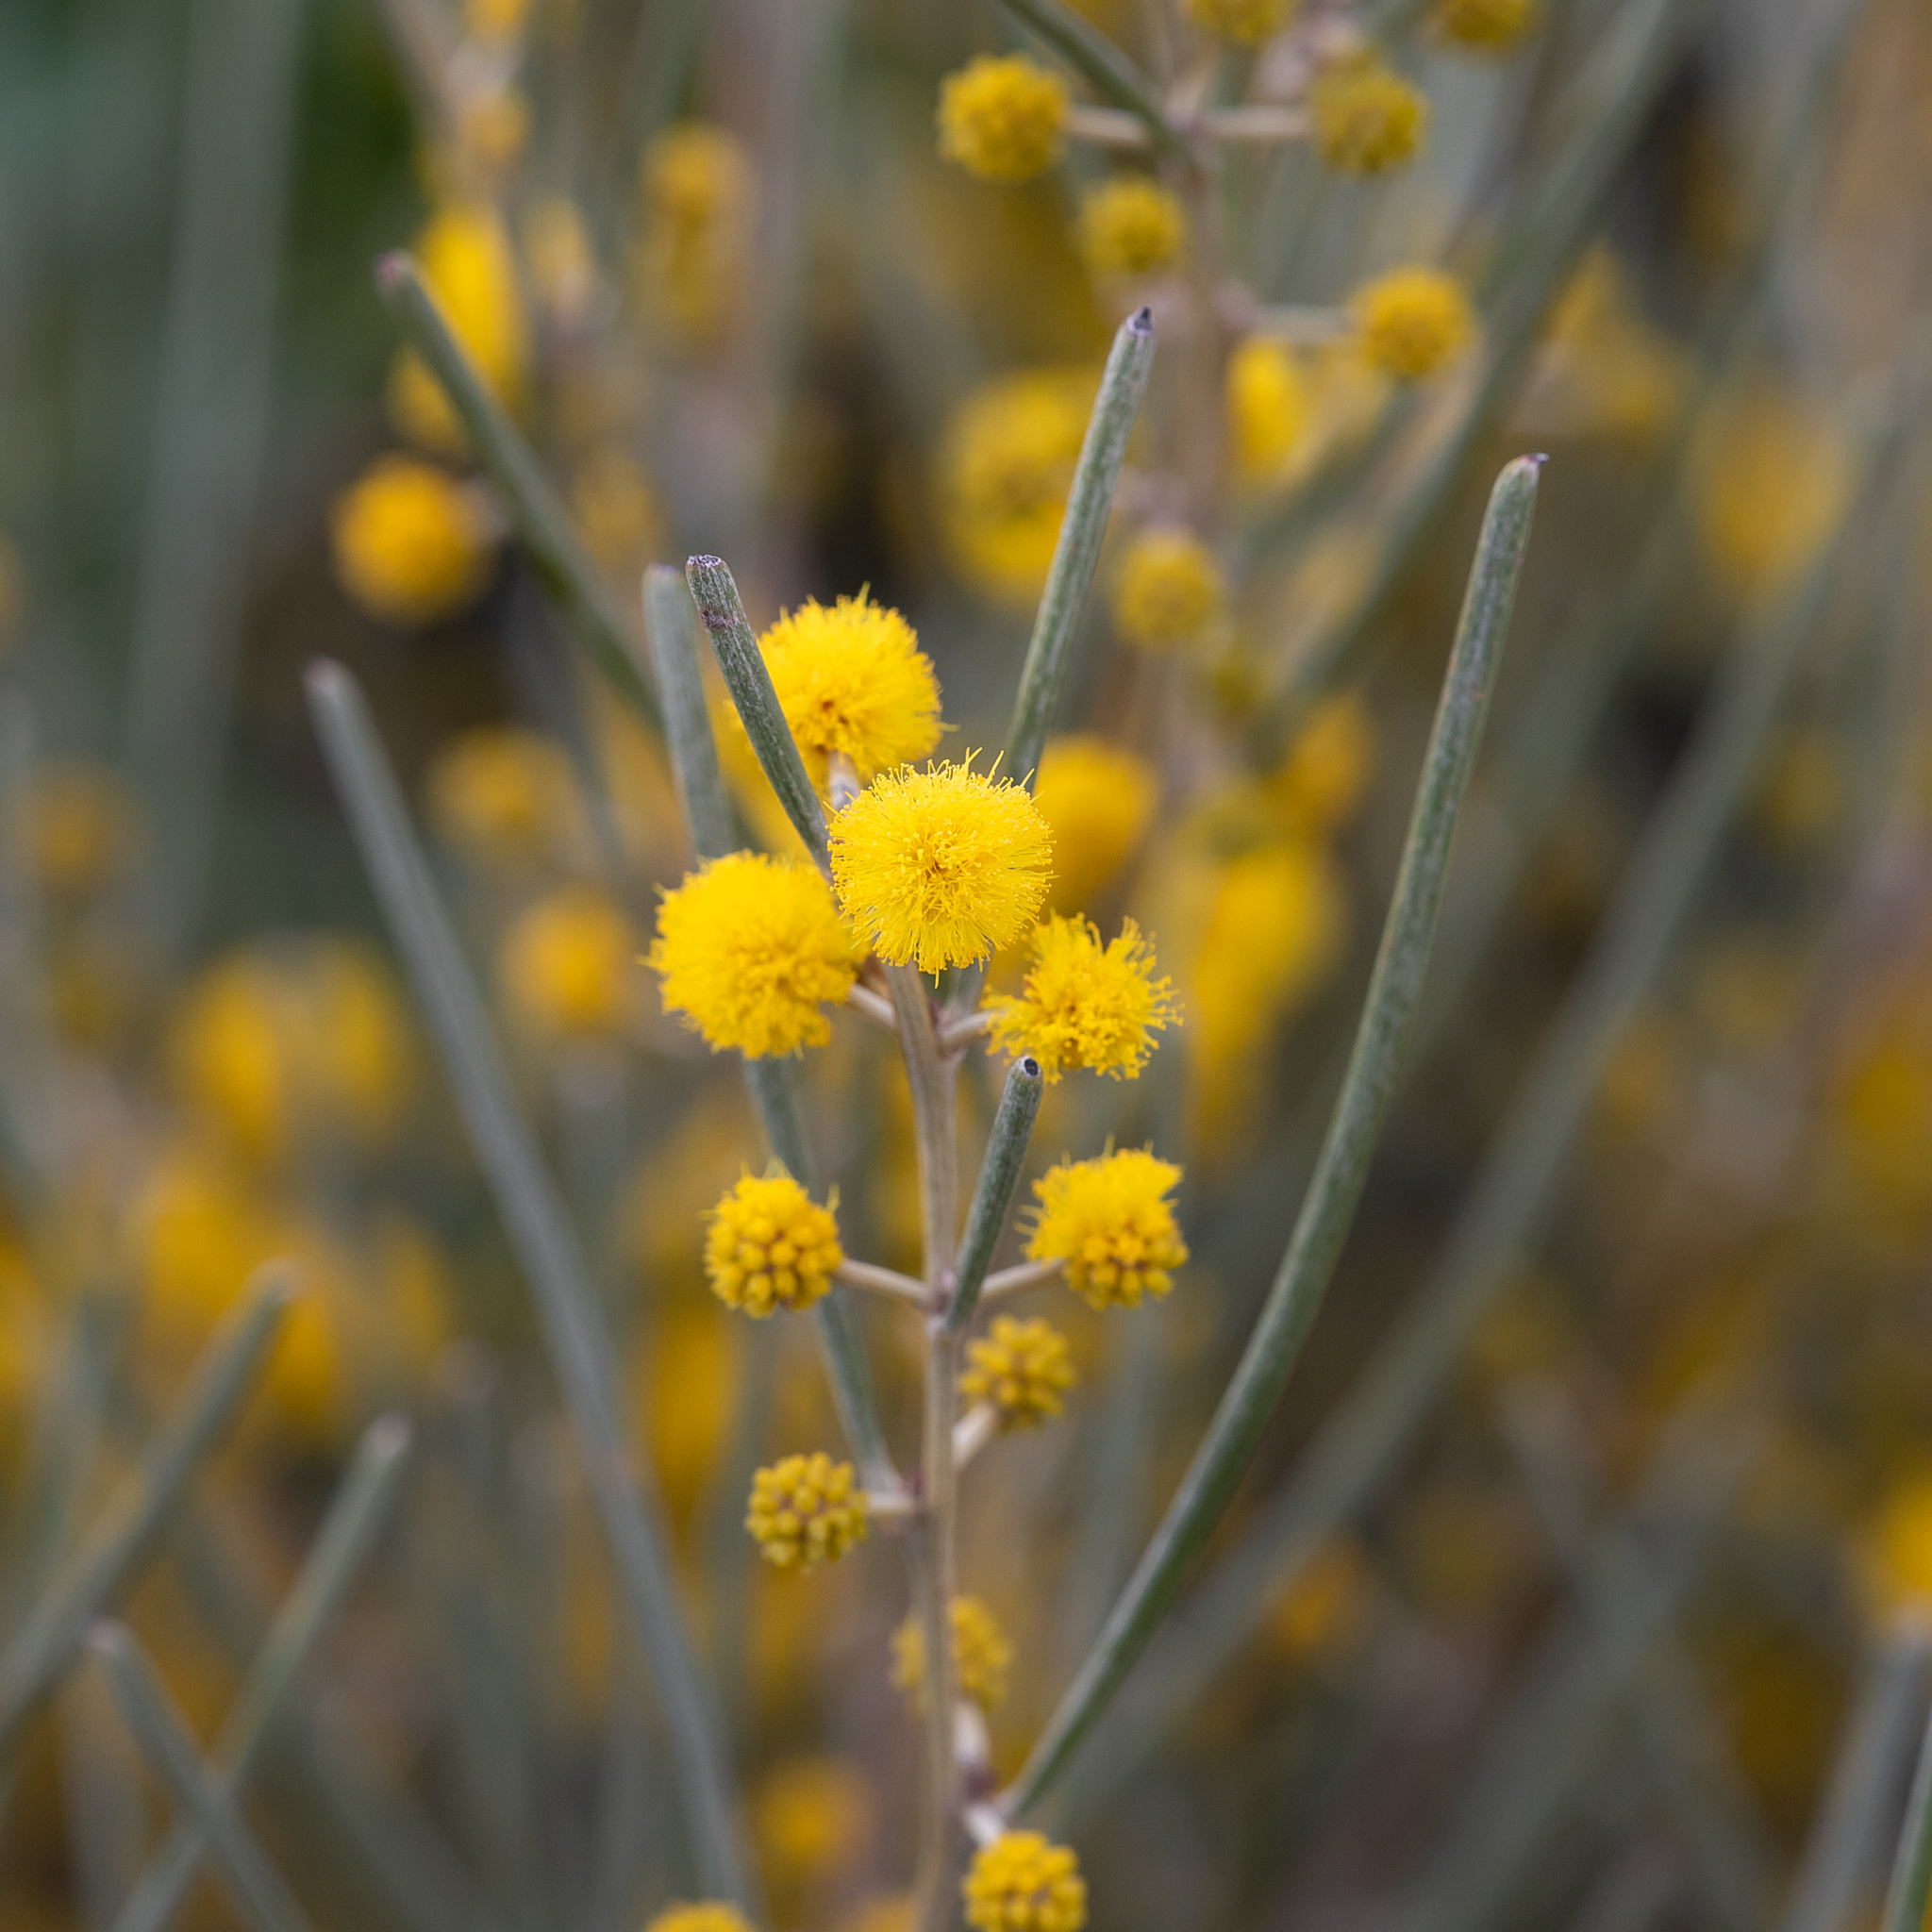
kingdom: Plantae
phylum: Tracheophyta
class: Magnoliopsida
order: Fabales
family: Fabaceae
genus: Acacia
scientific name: Acacia rigens
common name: Nealie
